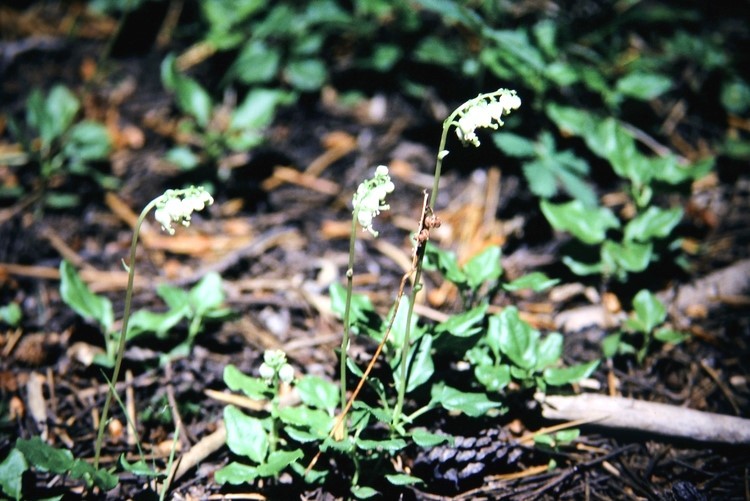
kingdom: Plantae
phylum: Tracheophyta
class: Magnoliopsida
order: Ericales
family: Ericaceae
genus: Orthilia
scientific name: Orthilia secunda
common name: One-sided orthilia
